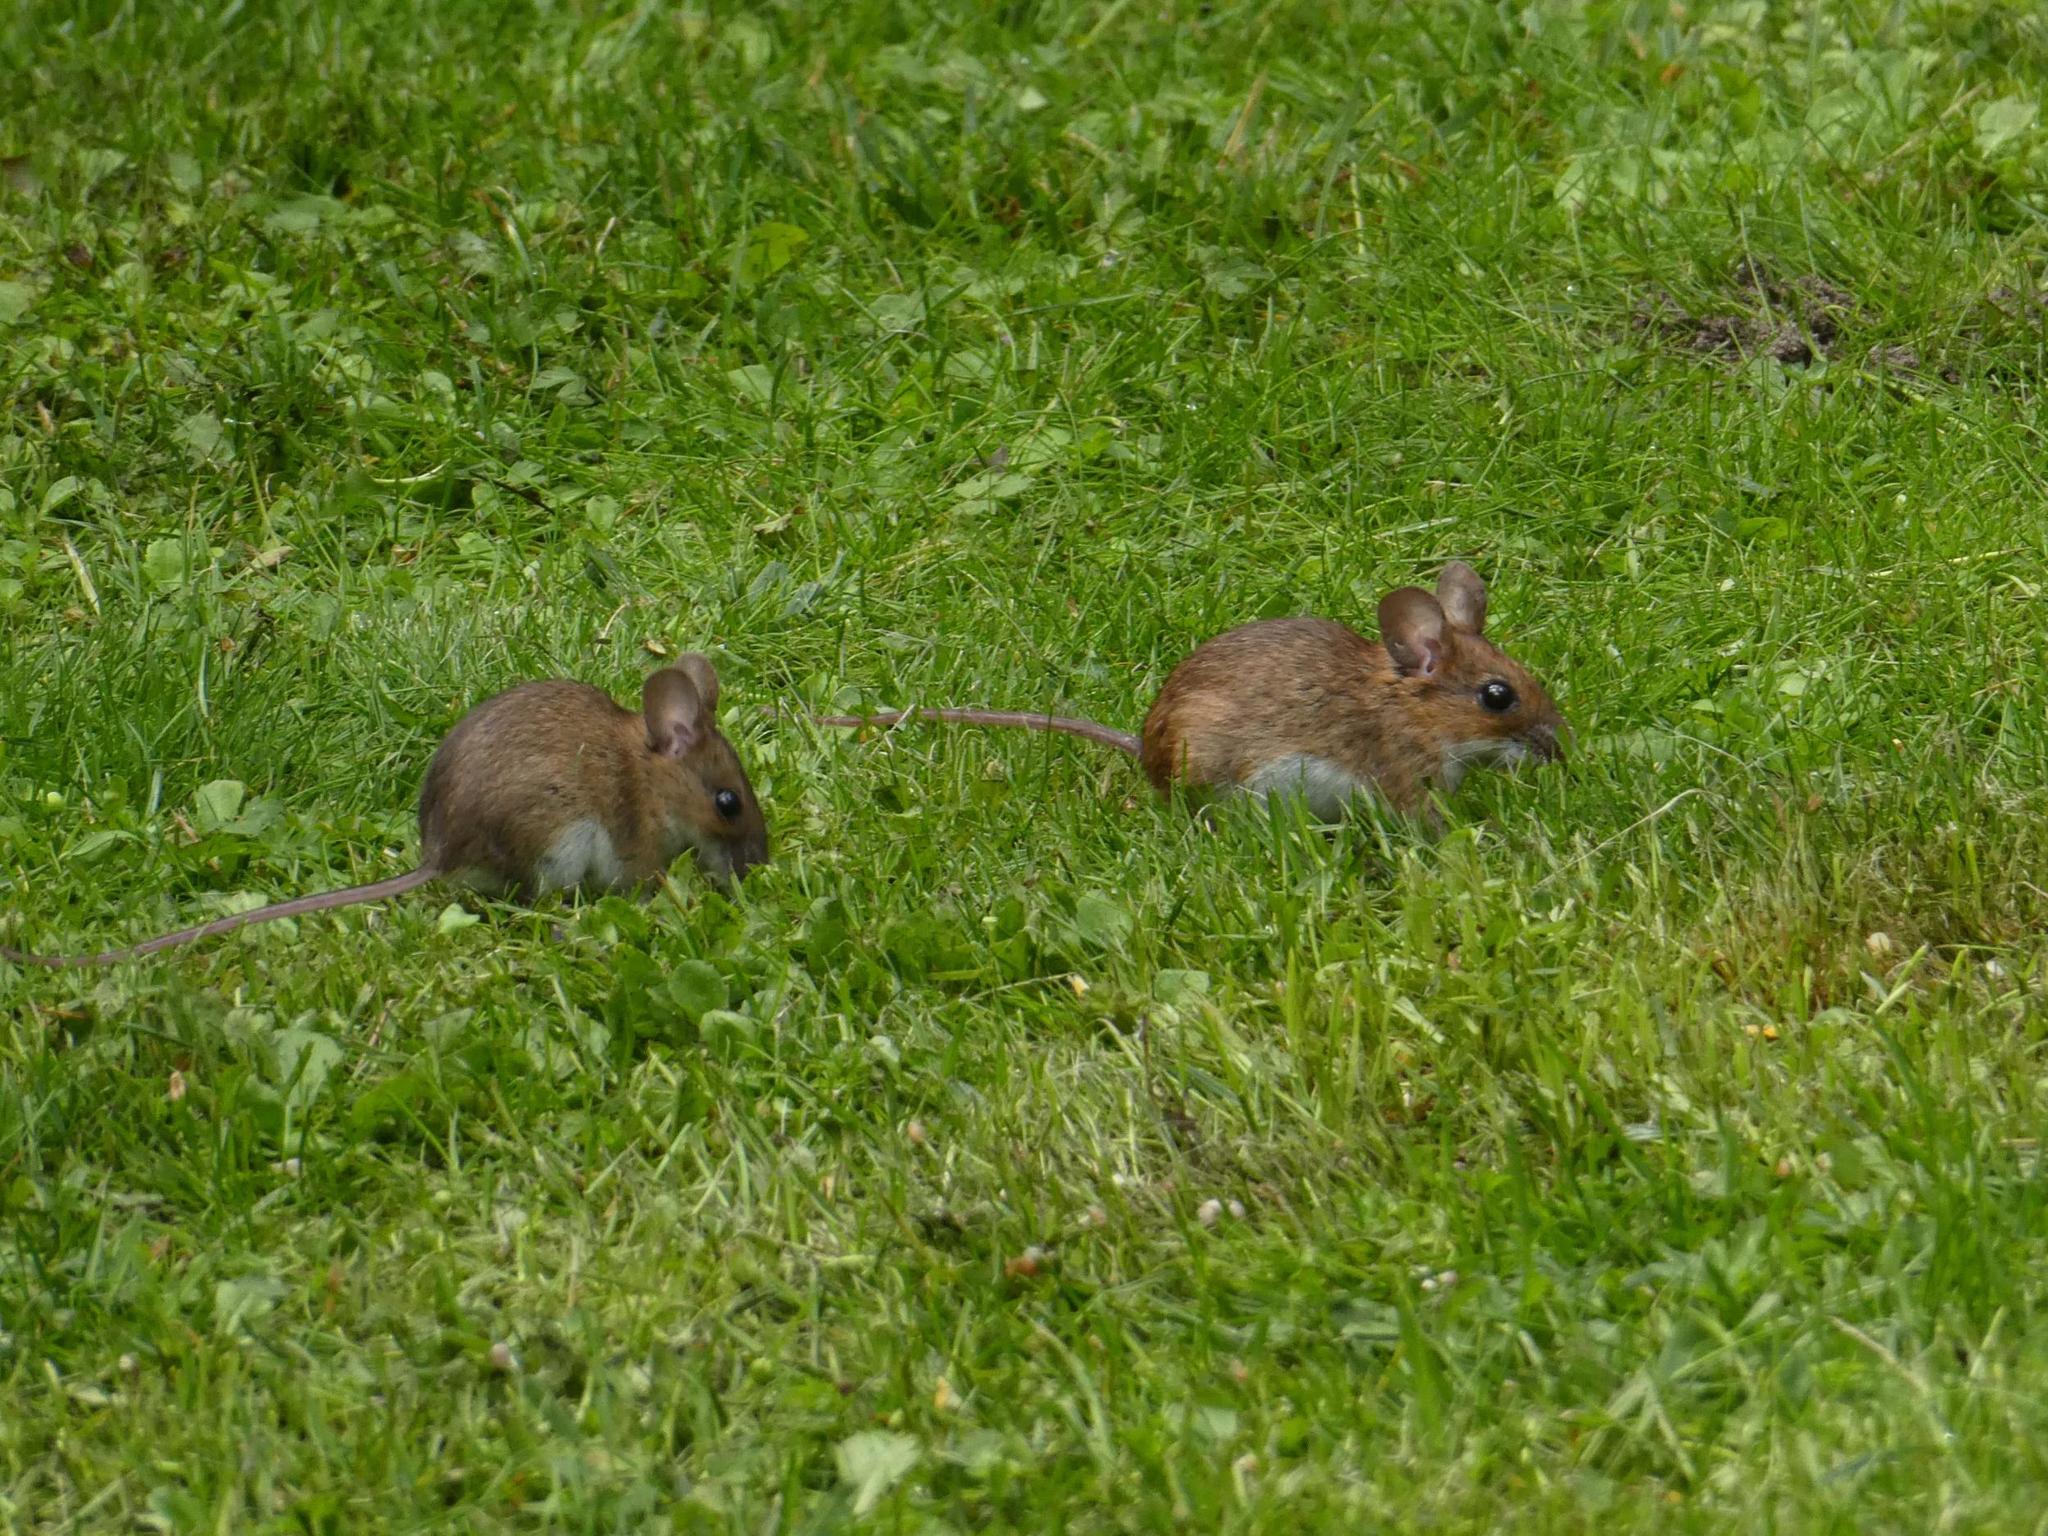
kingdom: Animalia
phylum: Chordata
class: Mammalia
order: Rodentia
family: Muridae
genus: Apodemus
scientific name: Apodemus flavicollis
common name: Yellow-necked field mouse
